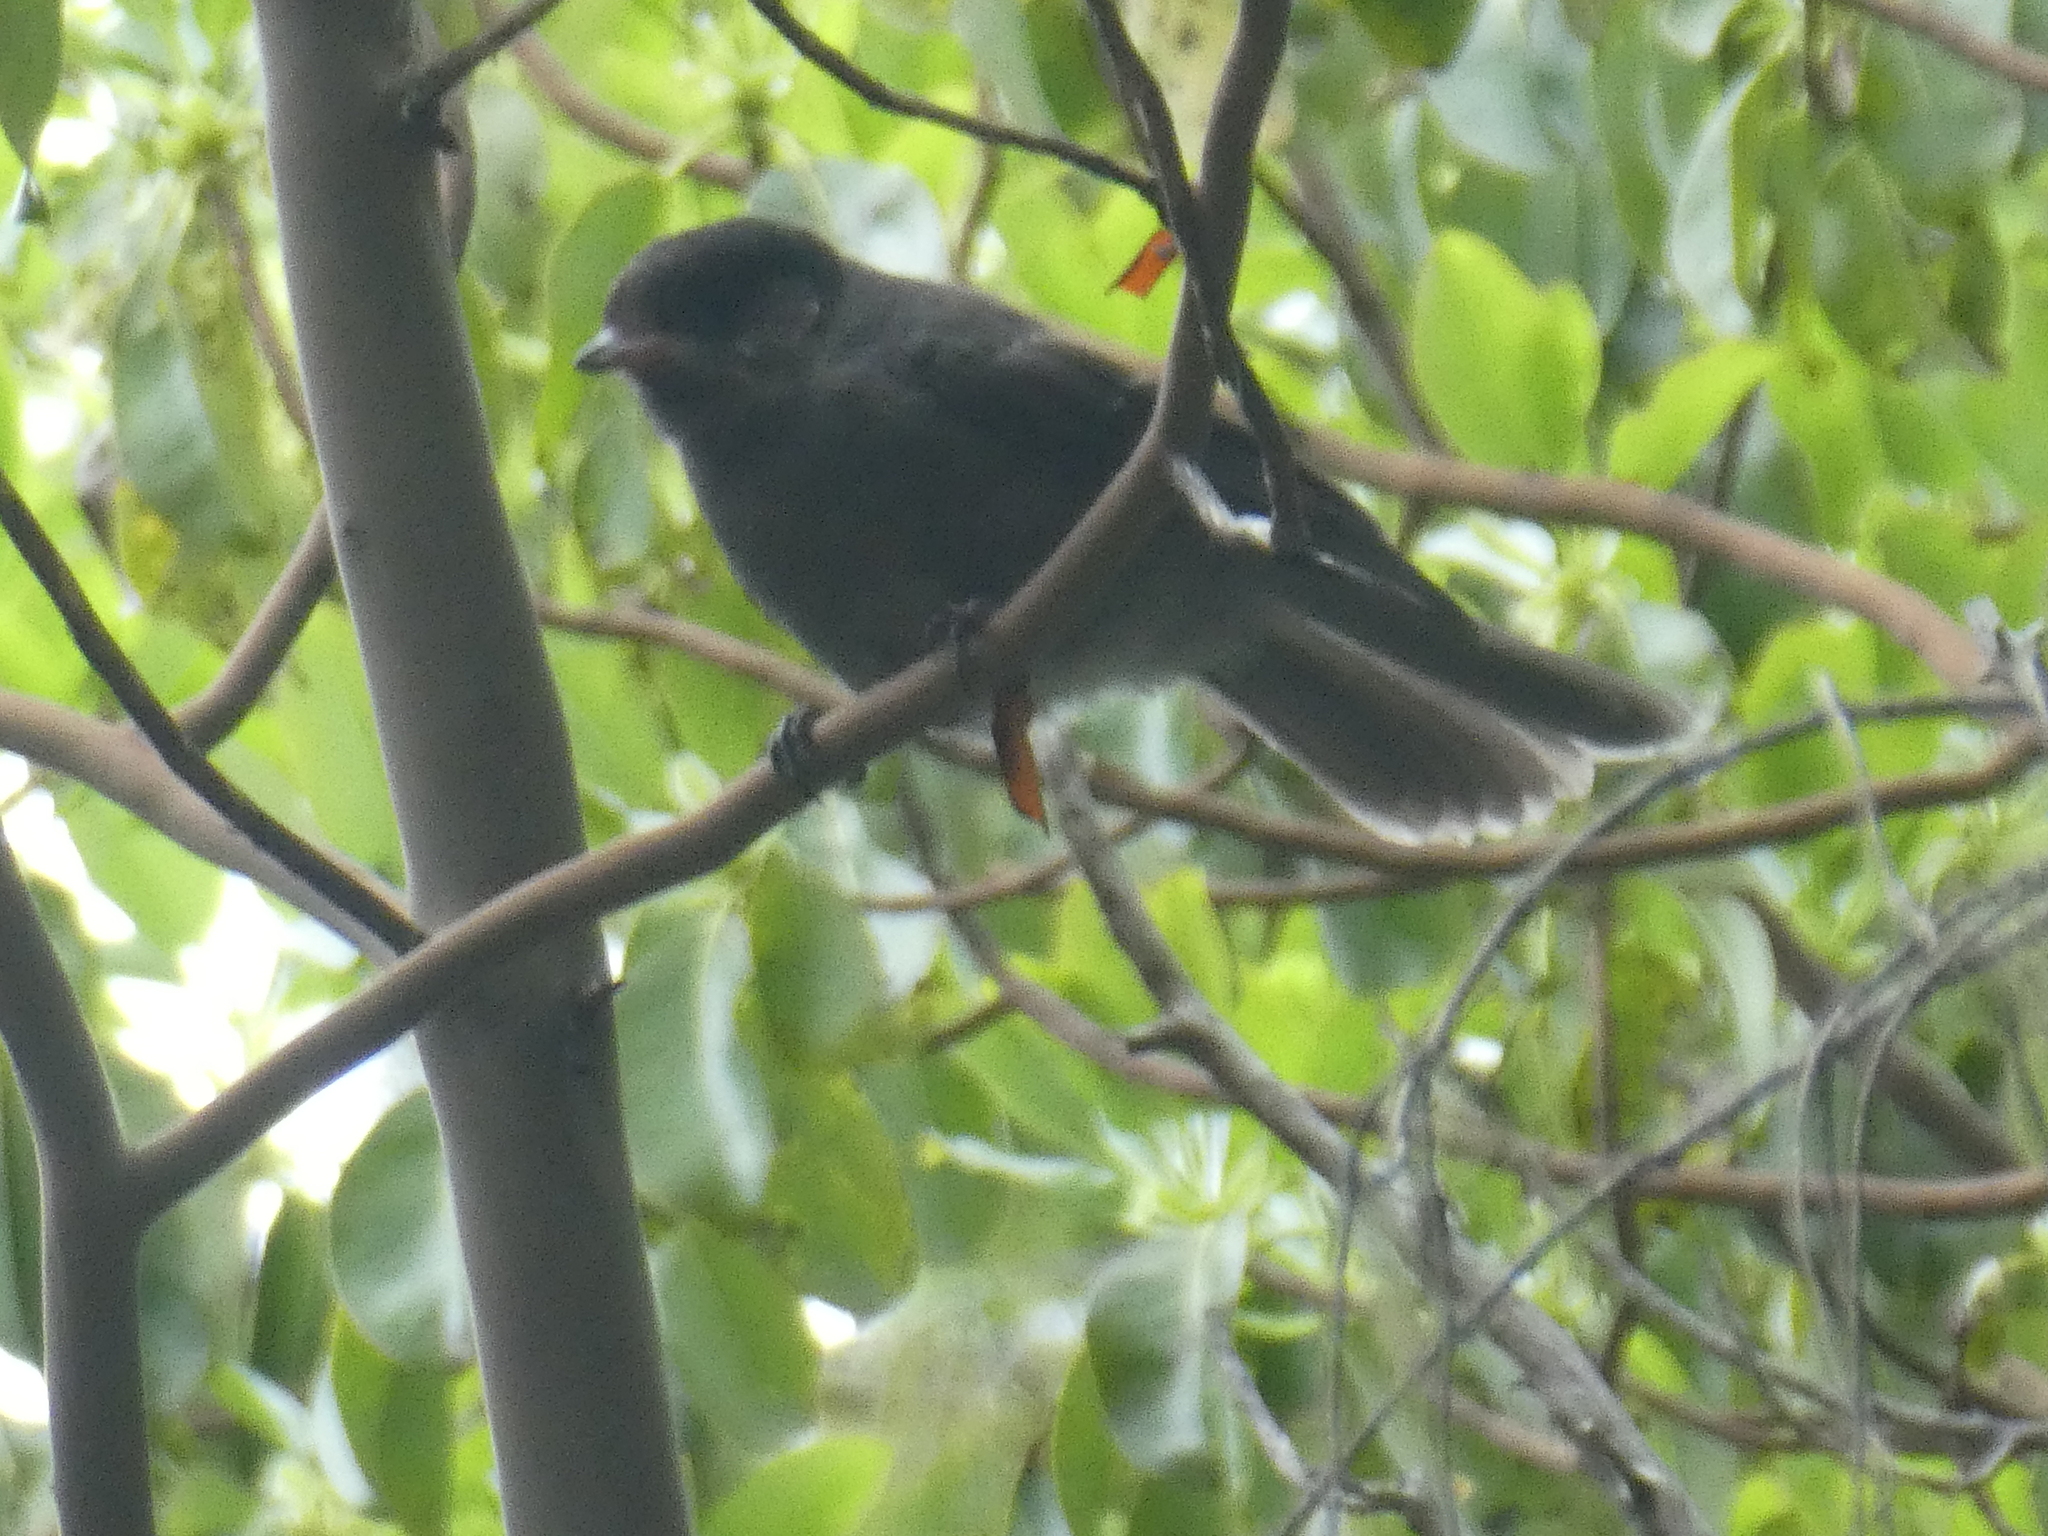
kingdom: Animalia
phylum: Chordata
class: Aves
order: Passeriformes
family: Corvidae
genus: Perisoreus
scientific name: Perisoreus canadensis
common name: Gray jay
